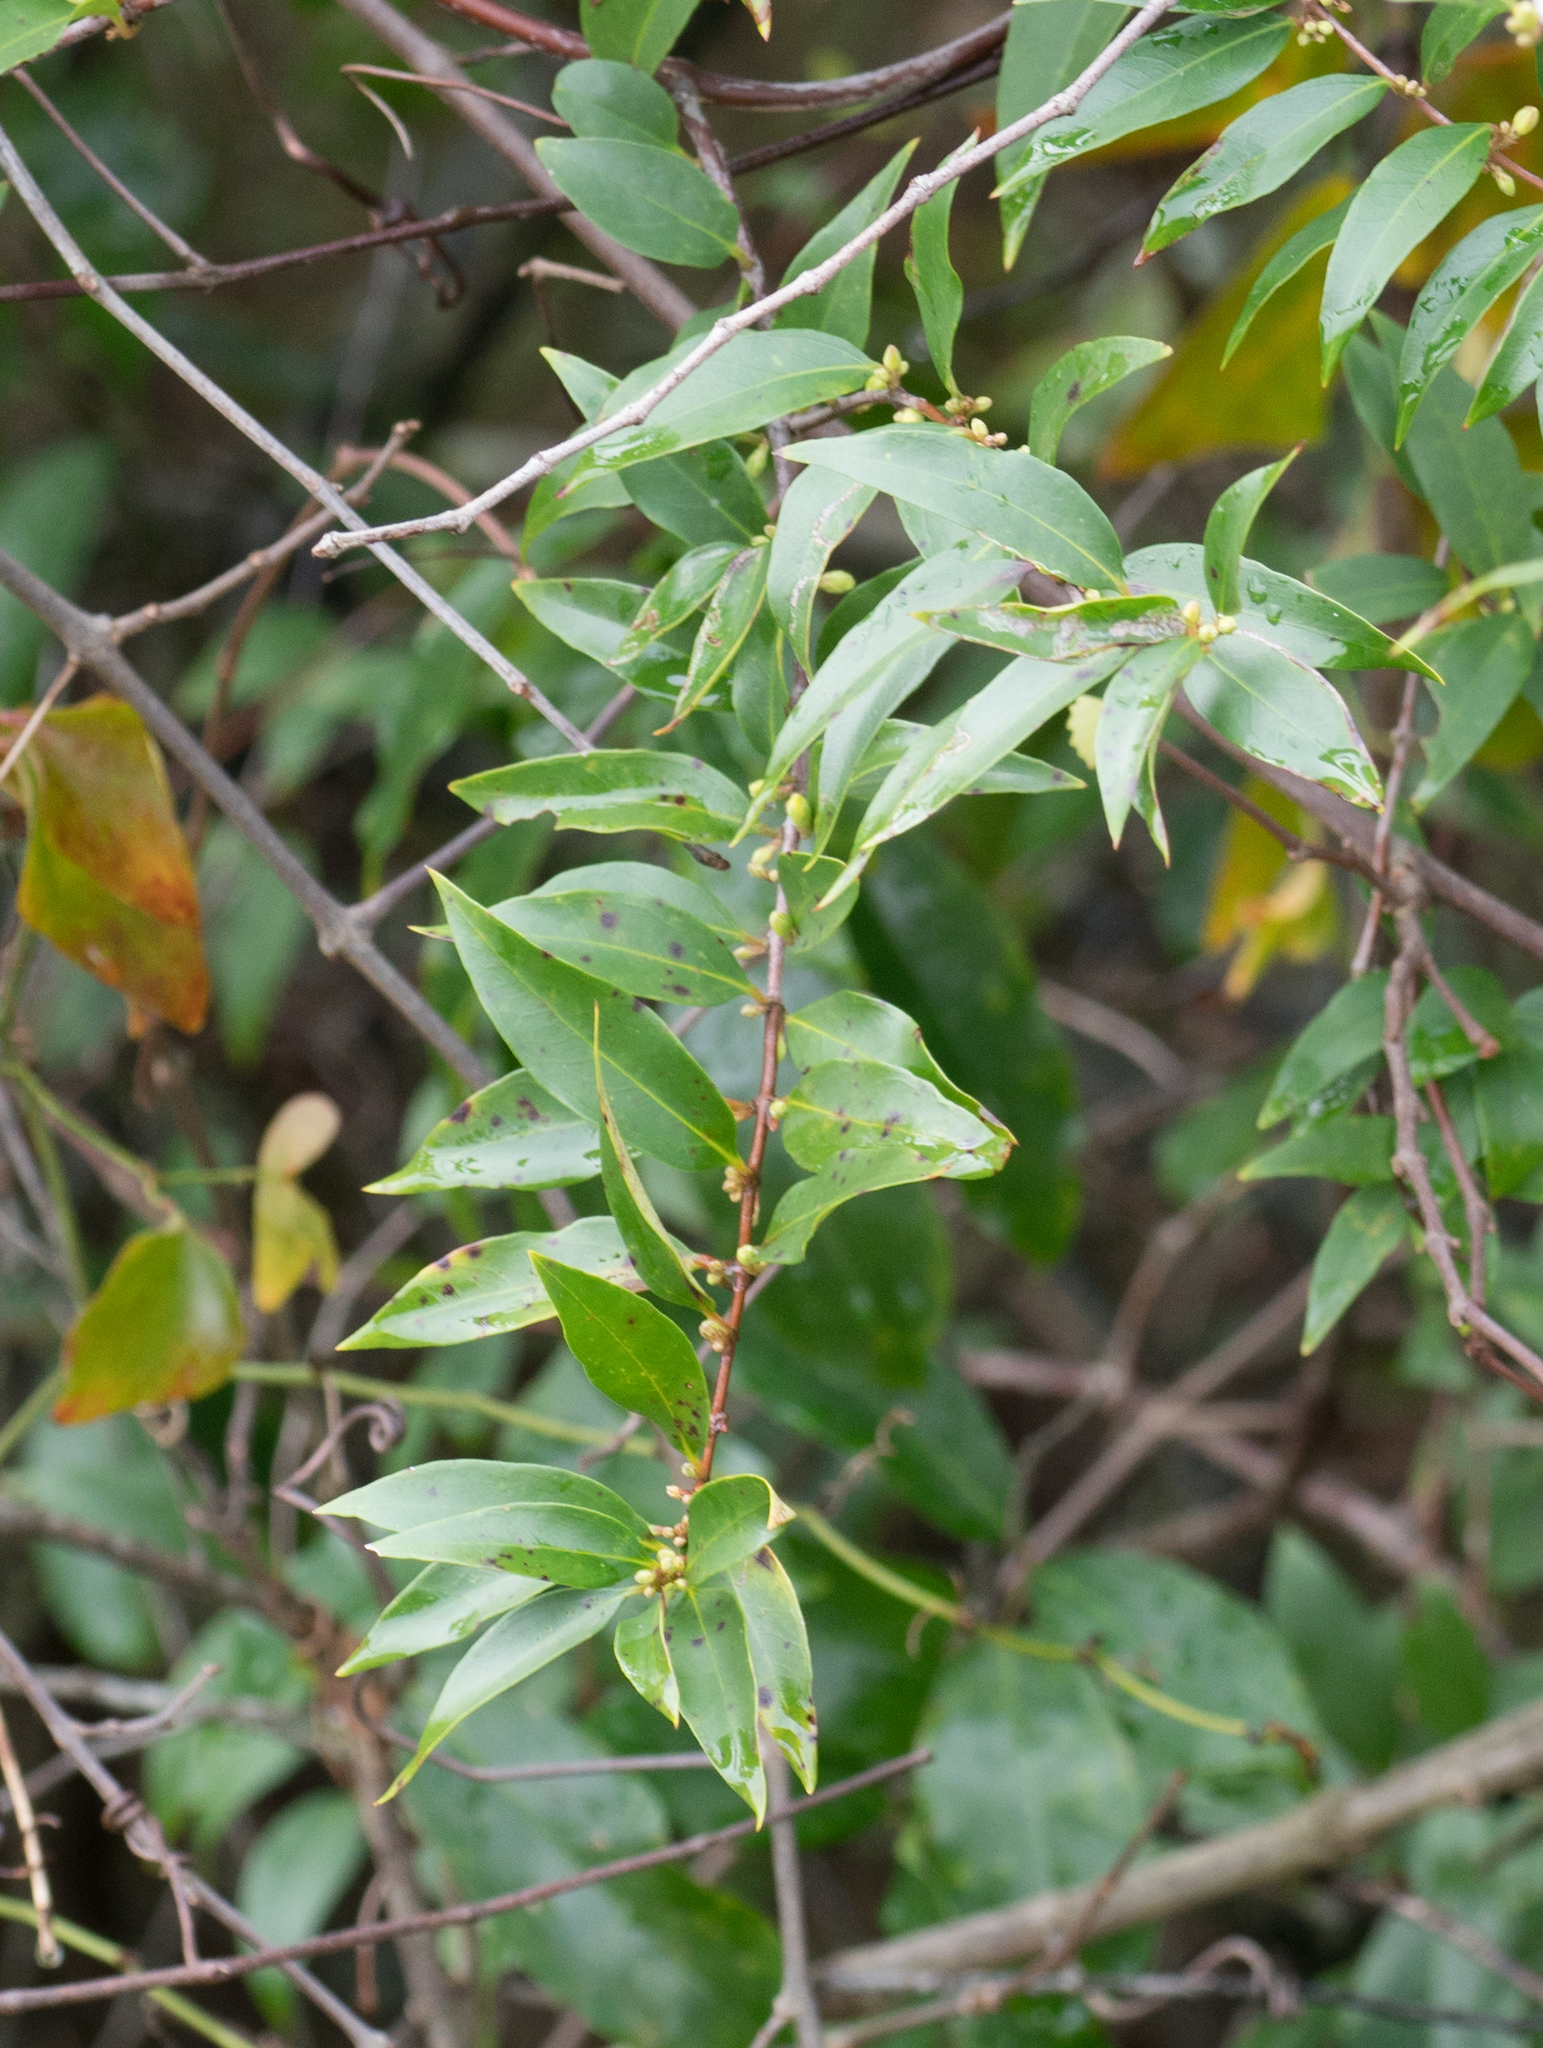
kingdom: Plantae
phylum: Tracheophyta
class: Magnoliopsida
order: Gentianales
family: Gelsemiaceae
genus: Gelsemium
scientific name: Gelsemium sempervirens
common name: Carolina-jasmine
